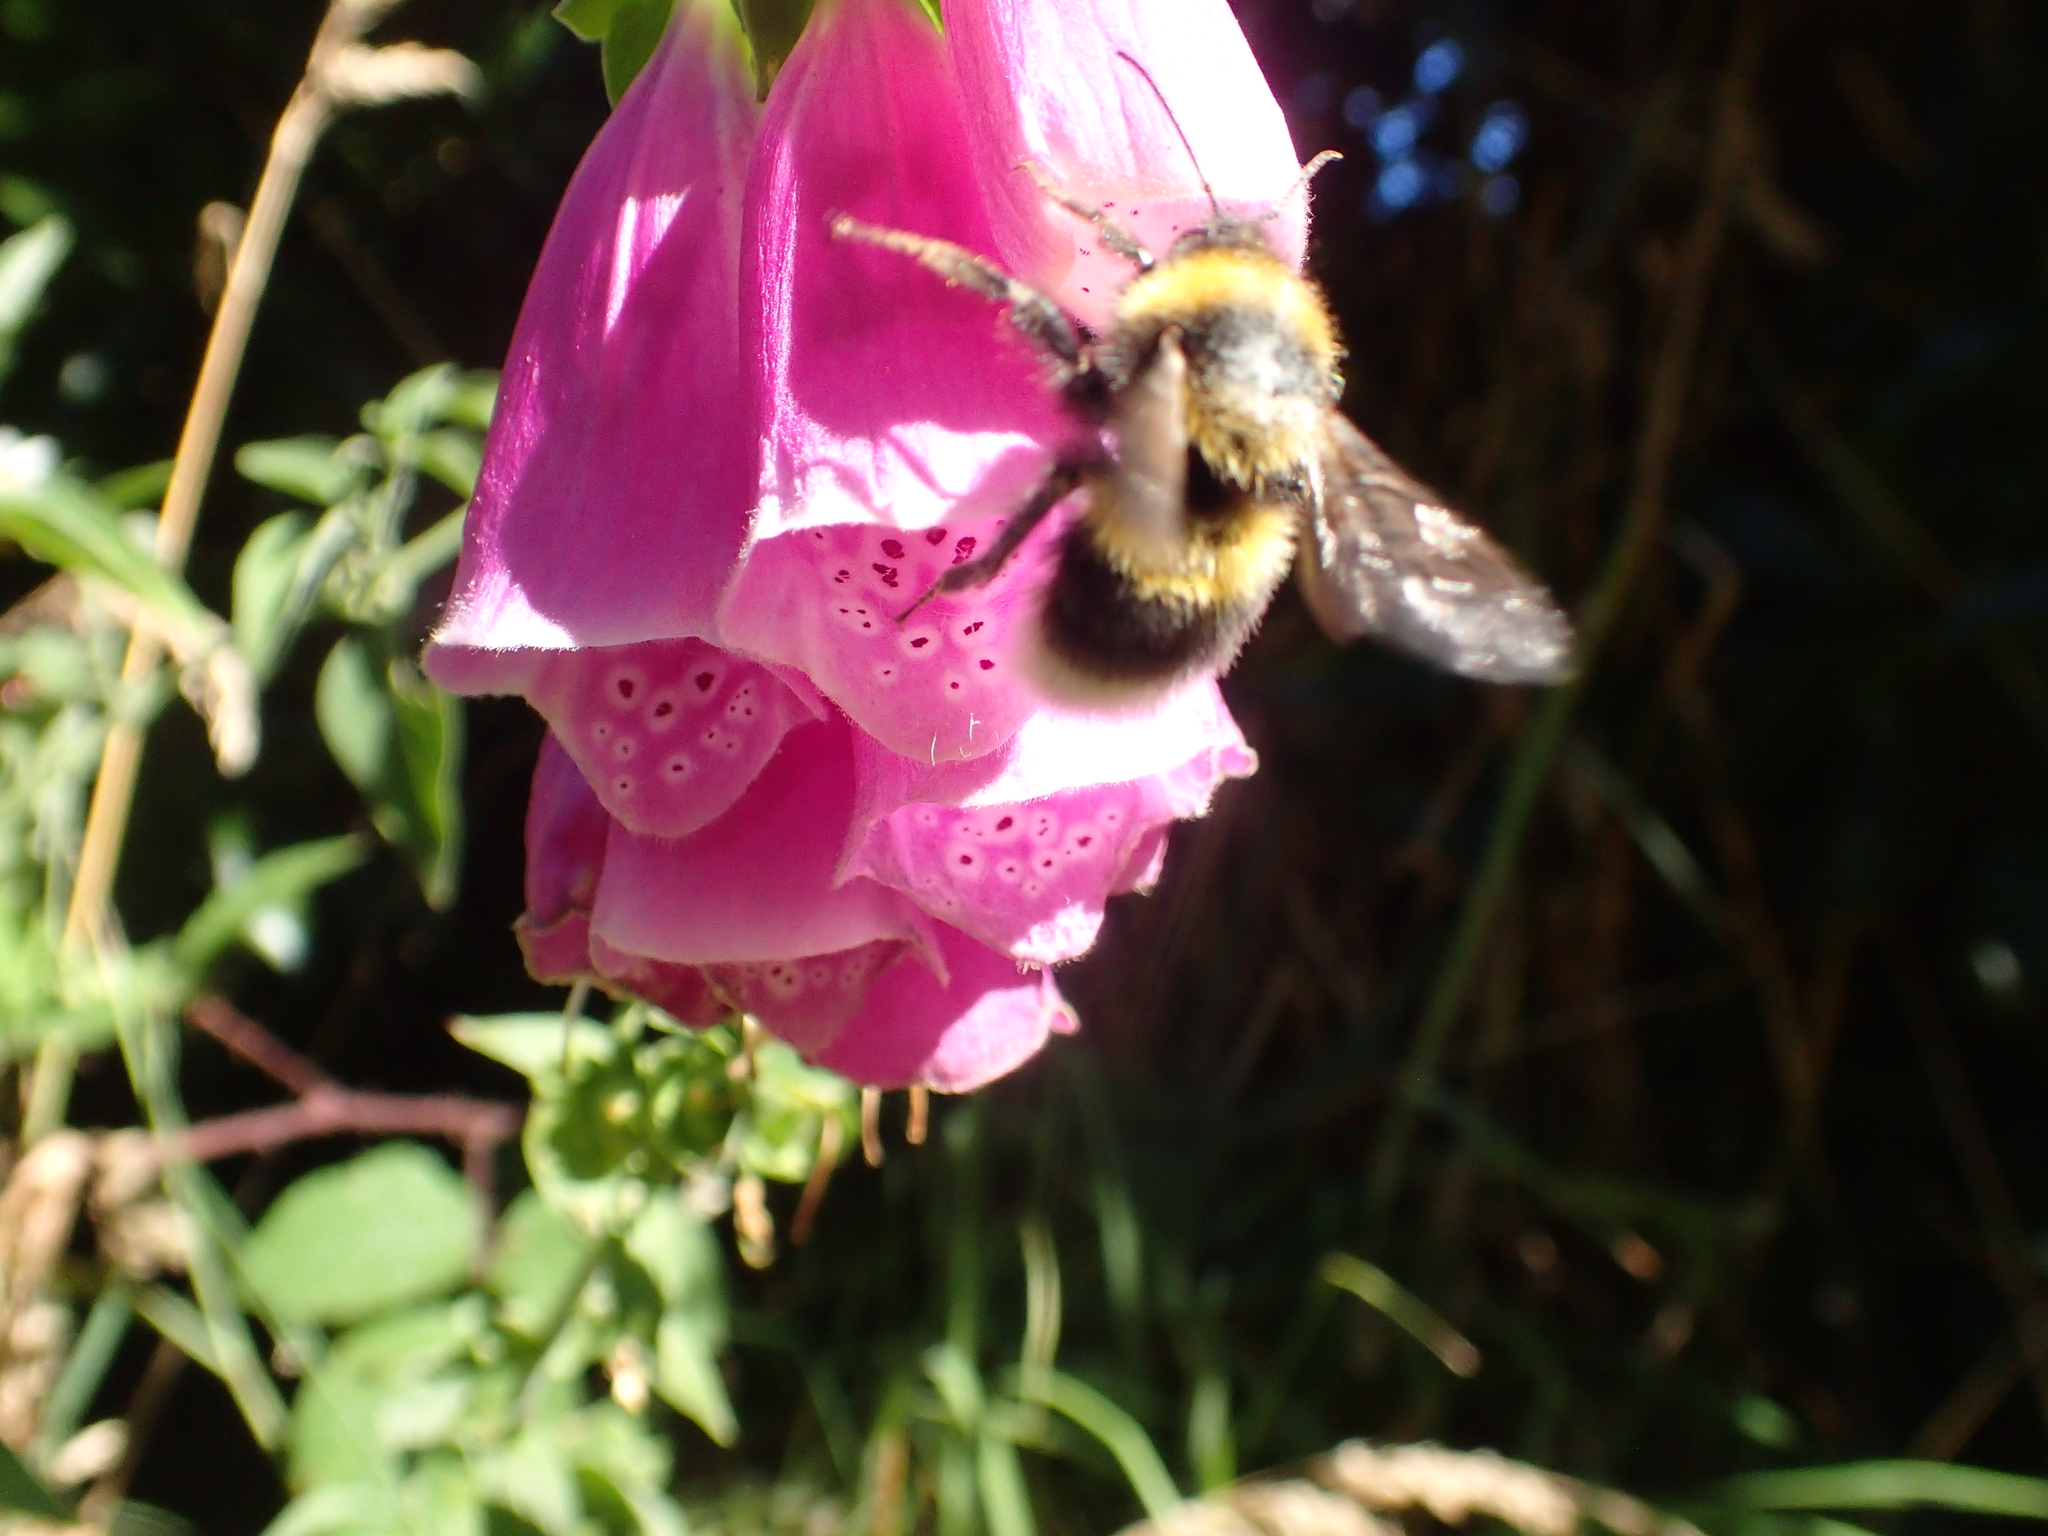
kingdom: Animalia
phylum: Arthropoda
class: Insecta
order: Hymenoptera
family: Apidae
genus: Megabombus
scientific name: Megabombus
